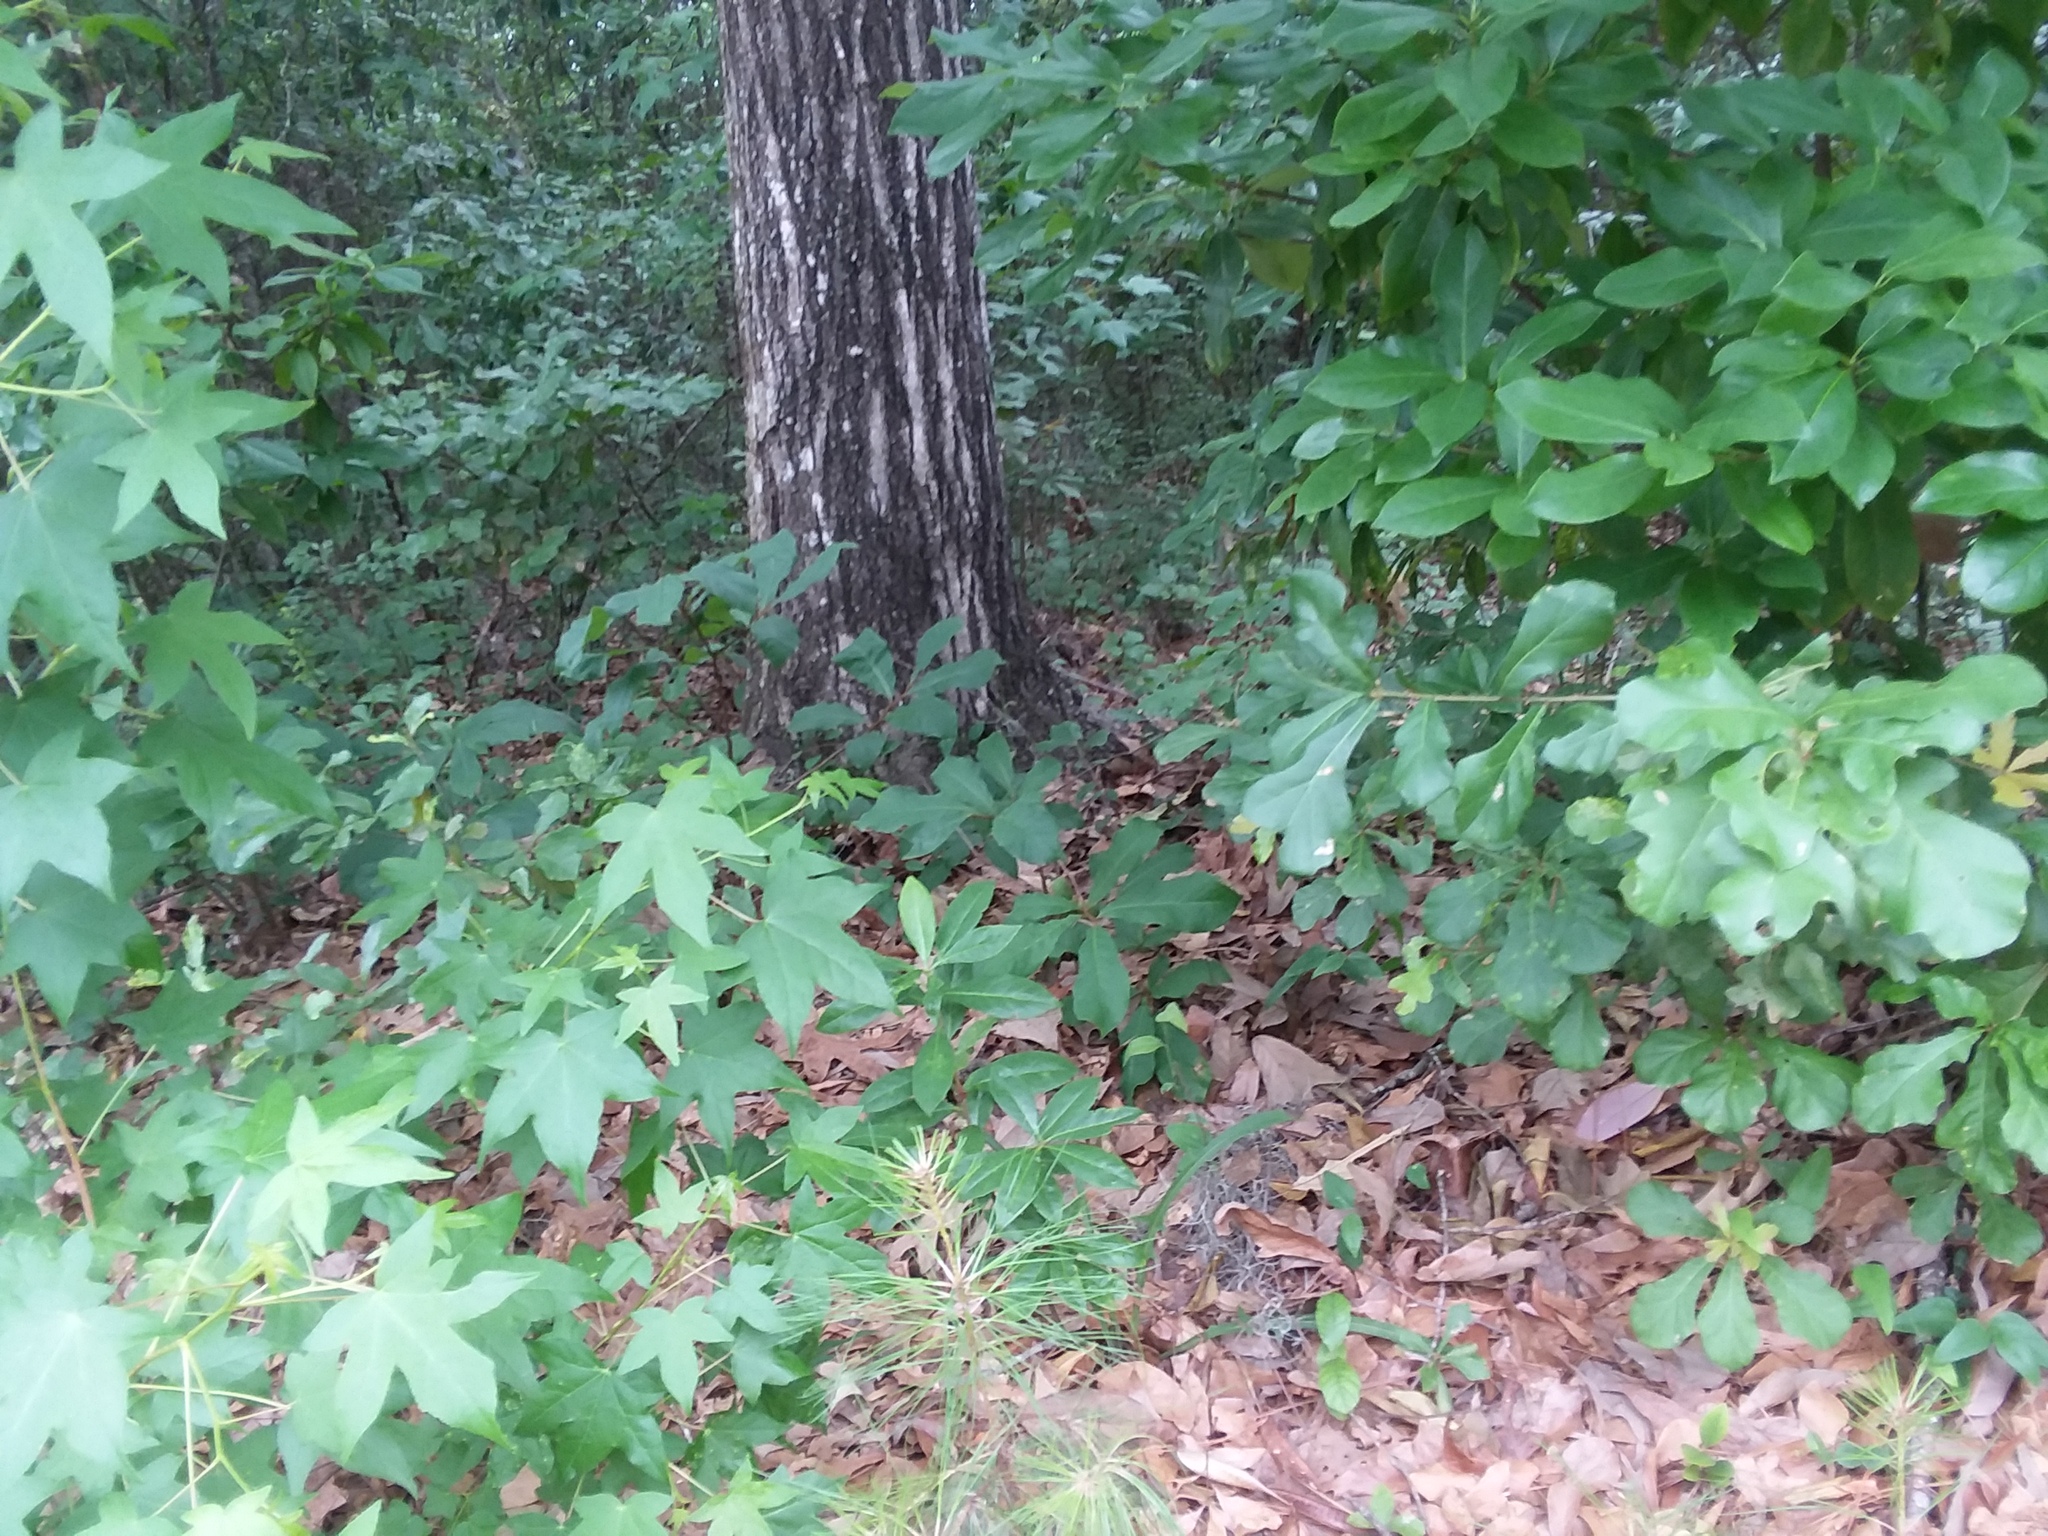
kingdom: Plantae
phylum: Tracheophyta
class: Magnoliopsida
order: Magnoliales
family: Annonaceae
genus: Asimina
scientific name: Asimina parviflora
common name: Dwarf pawpaw
